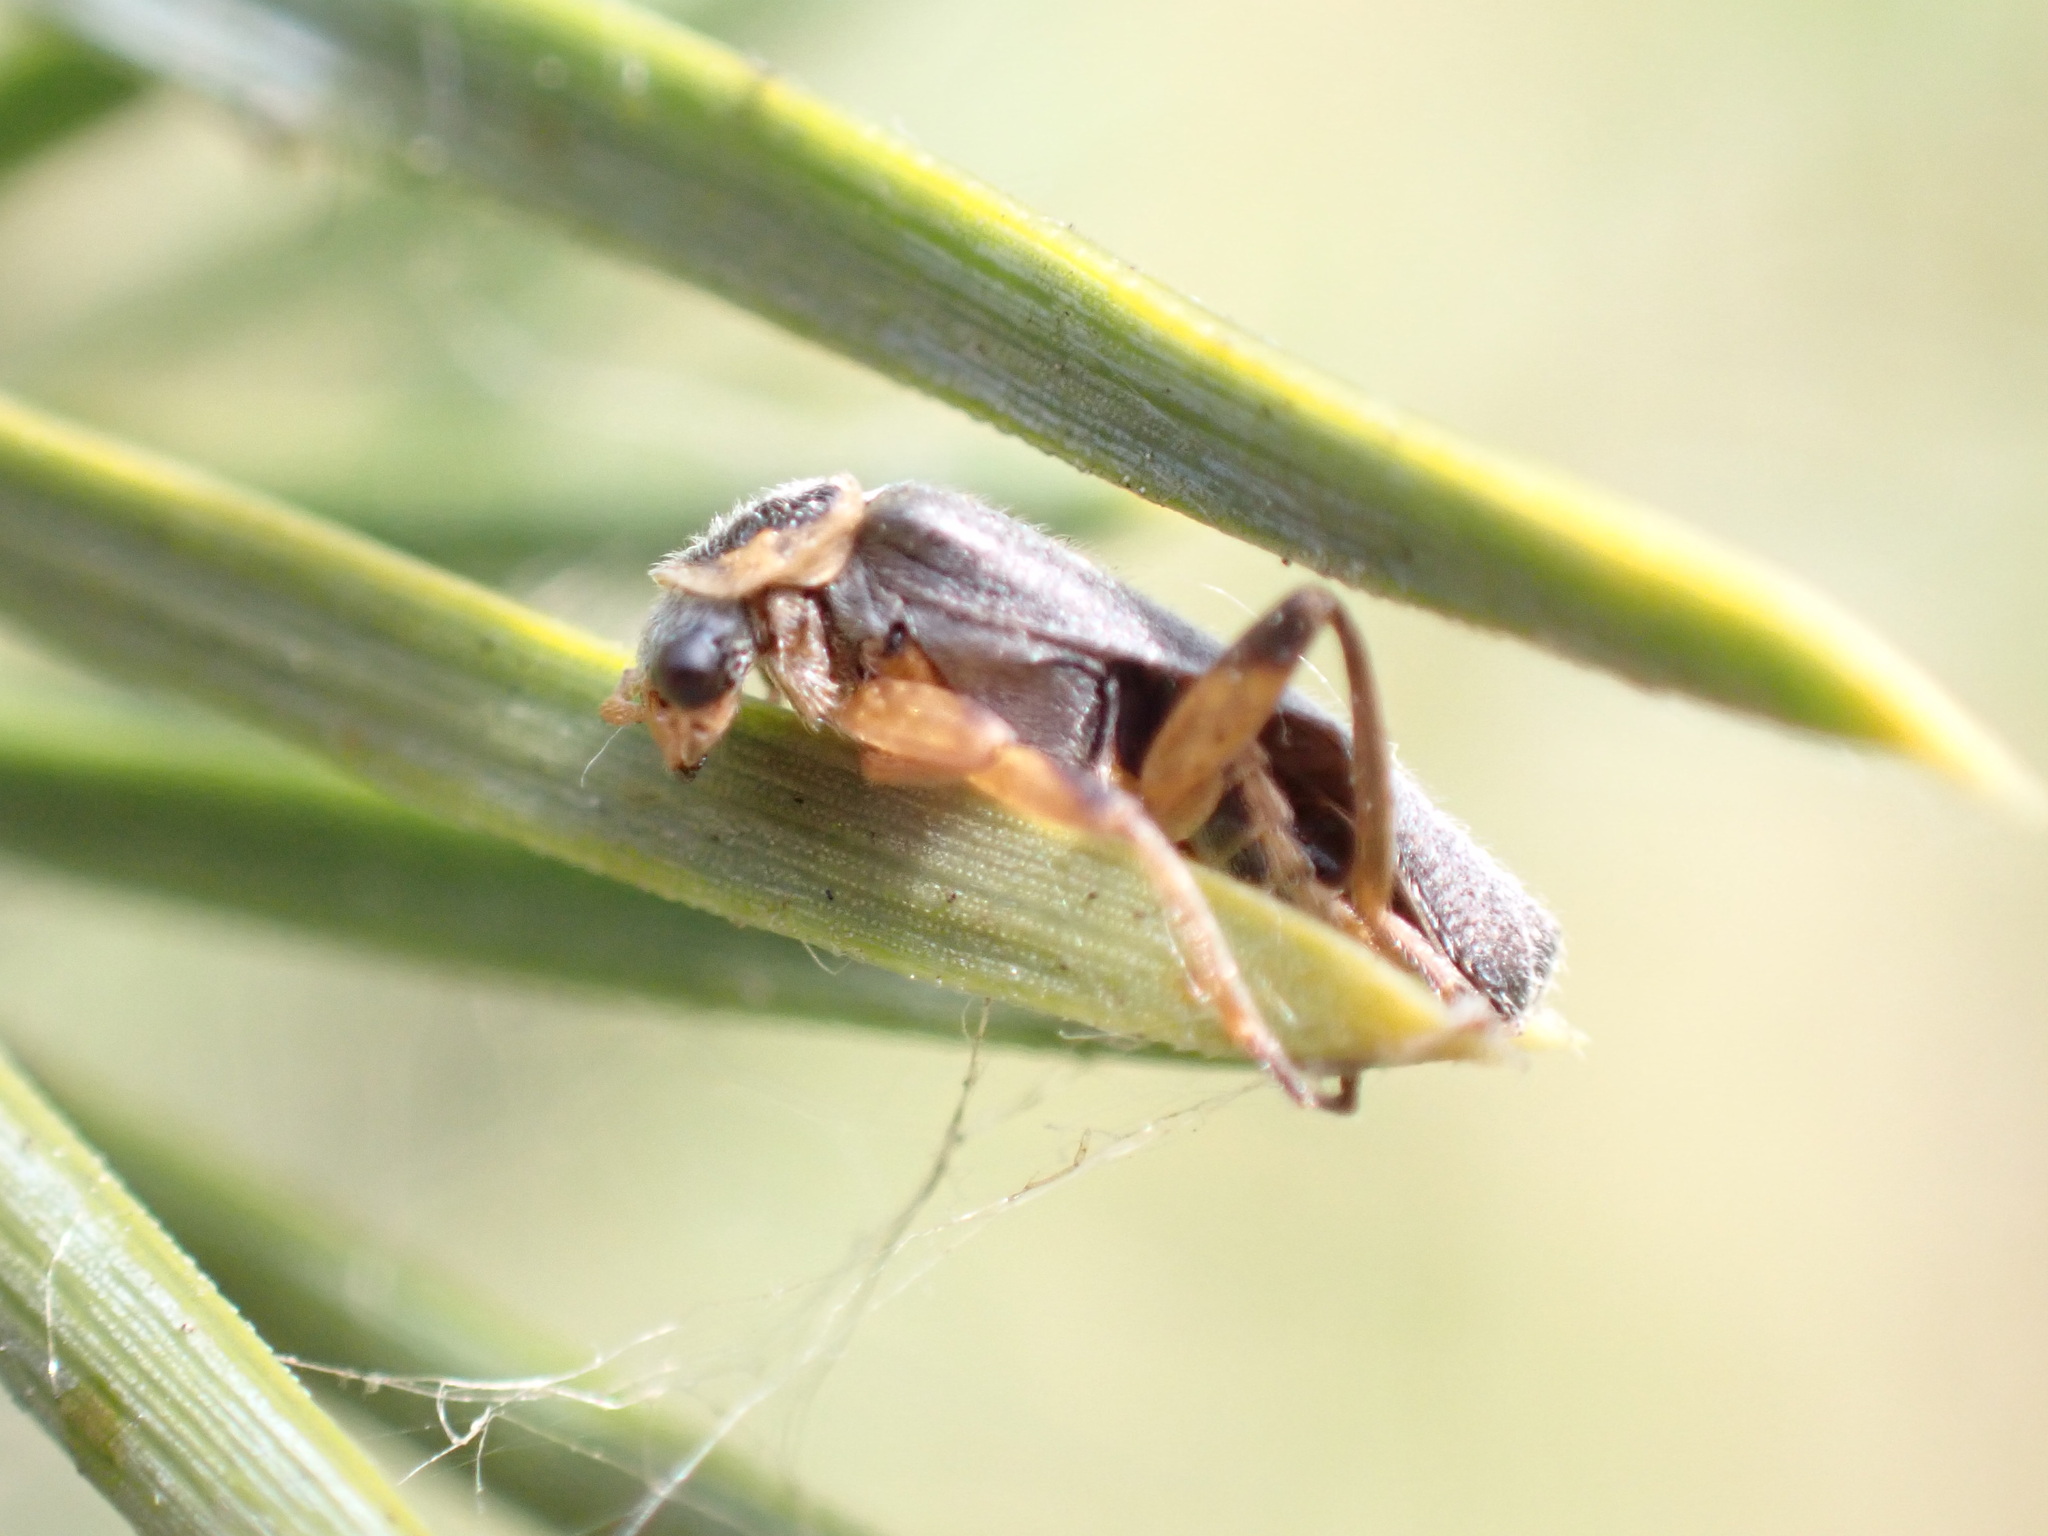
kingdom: Animalia
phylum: Arthropoda
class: Insecta
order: Coleoptera
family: Cantharidae
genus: Cantharis
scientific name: Cantharis nigricans
